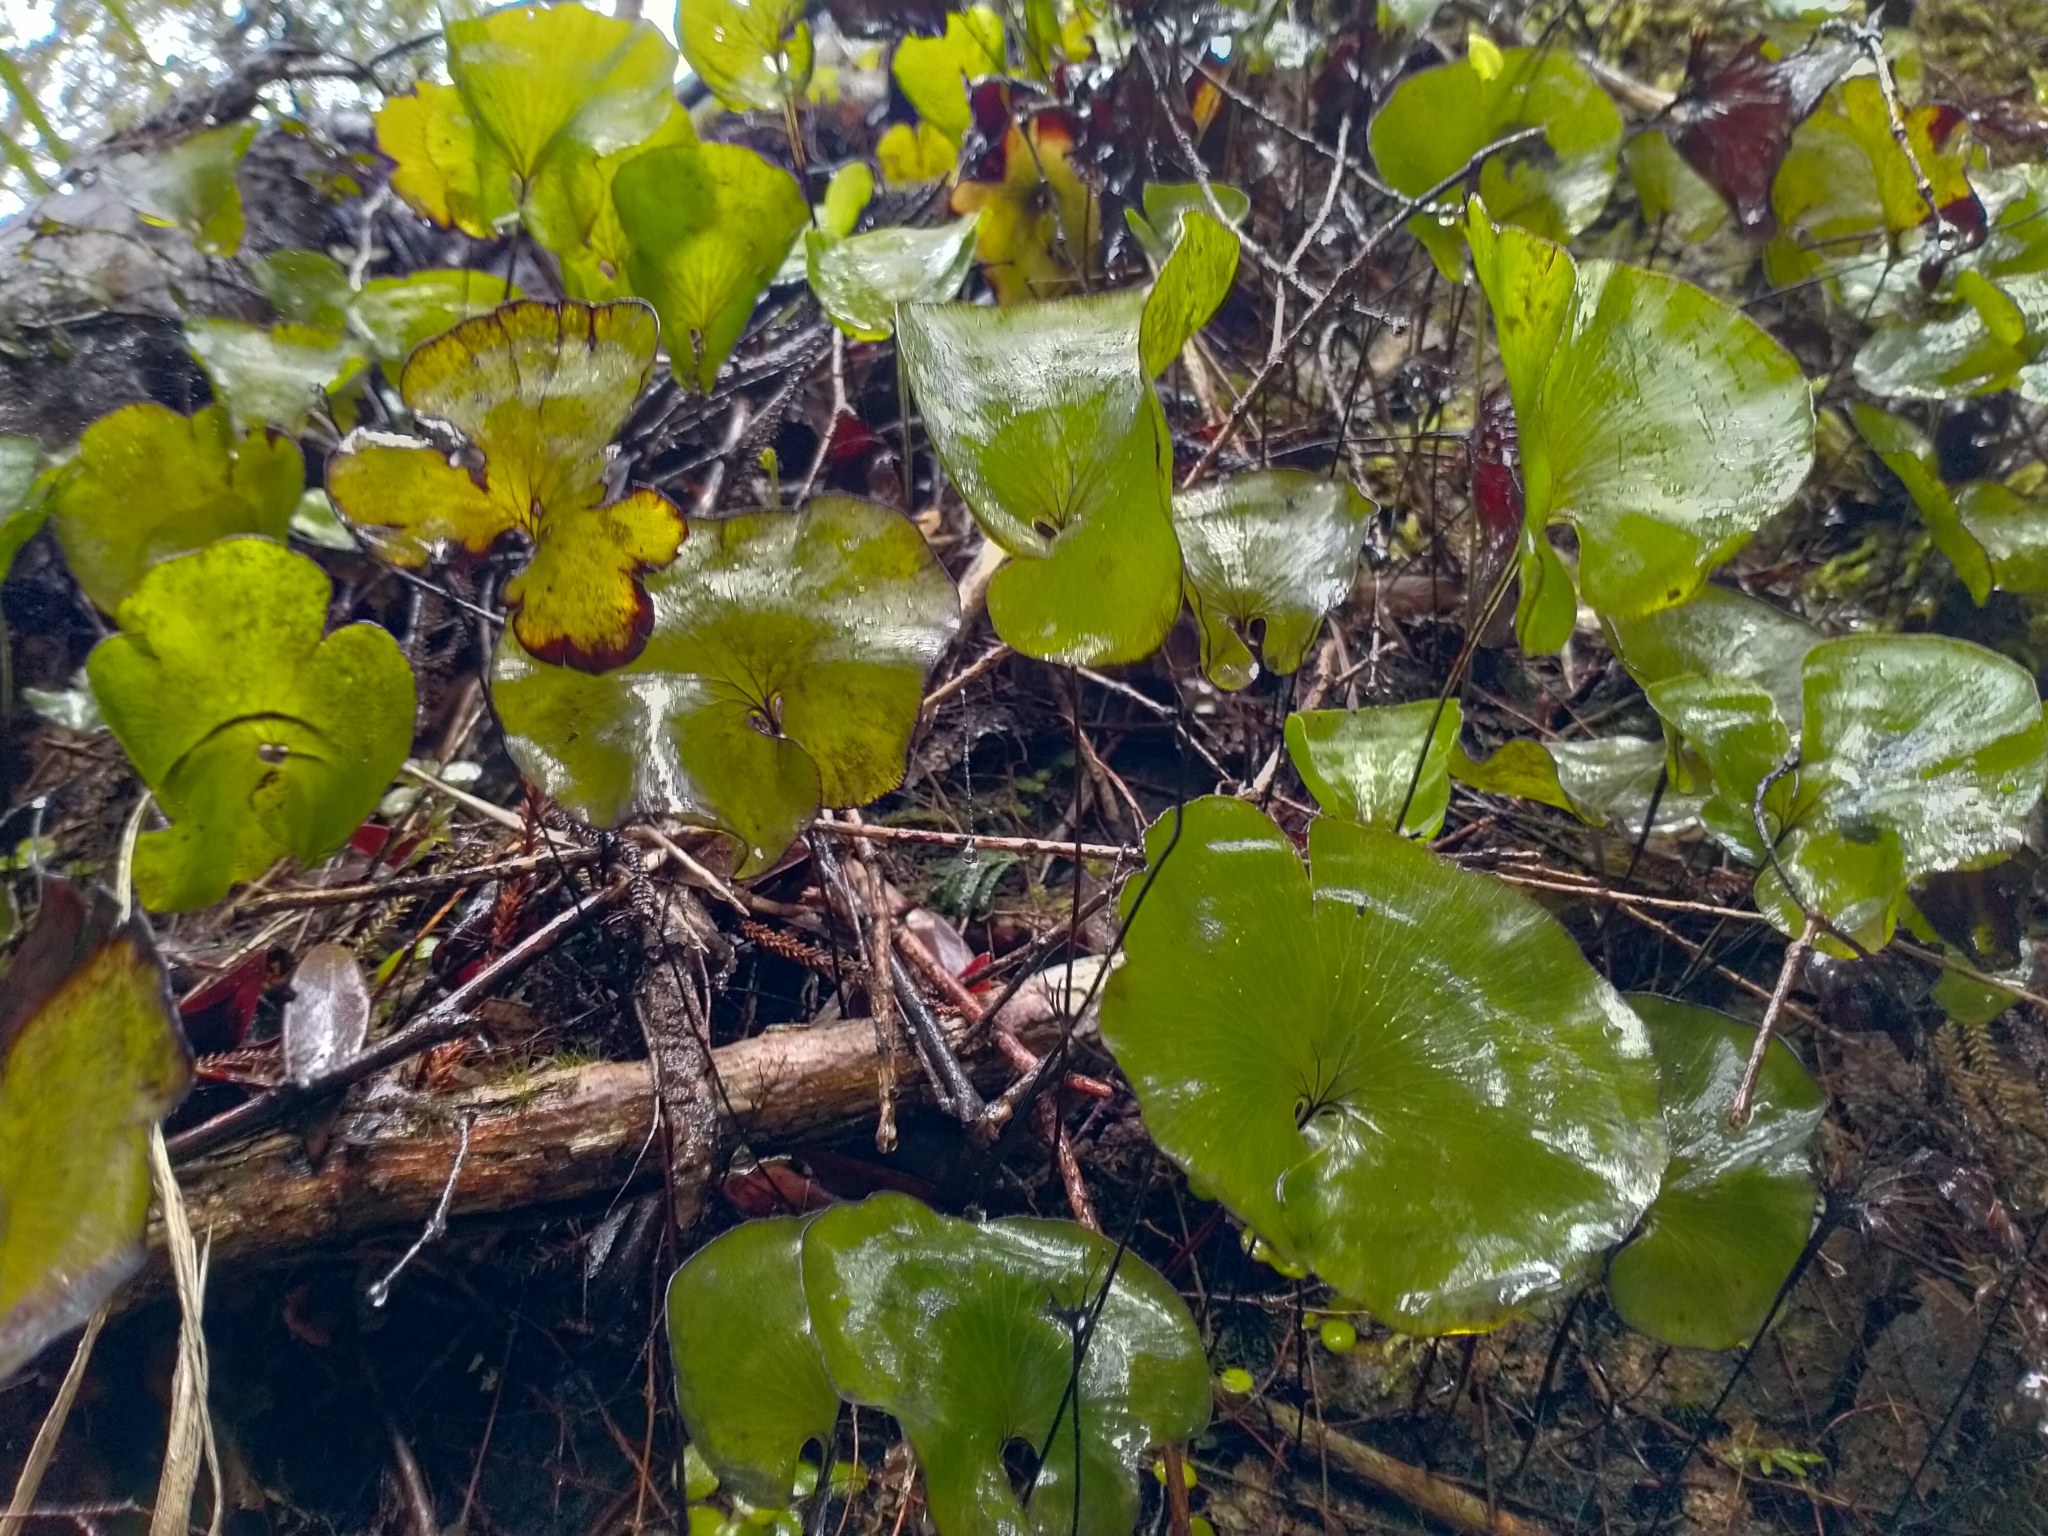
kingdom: Plantae
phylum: Tracheophyta
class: Polypodiopsida
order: Hymenophyllales
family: Hymenophyllaceae
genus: Hymenophyllum
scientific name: Hymenophyllum nephrophyllum
